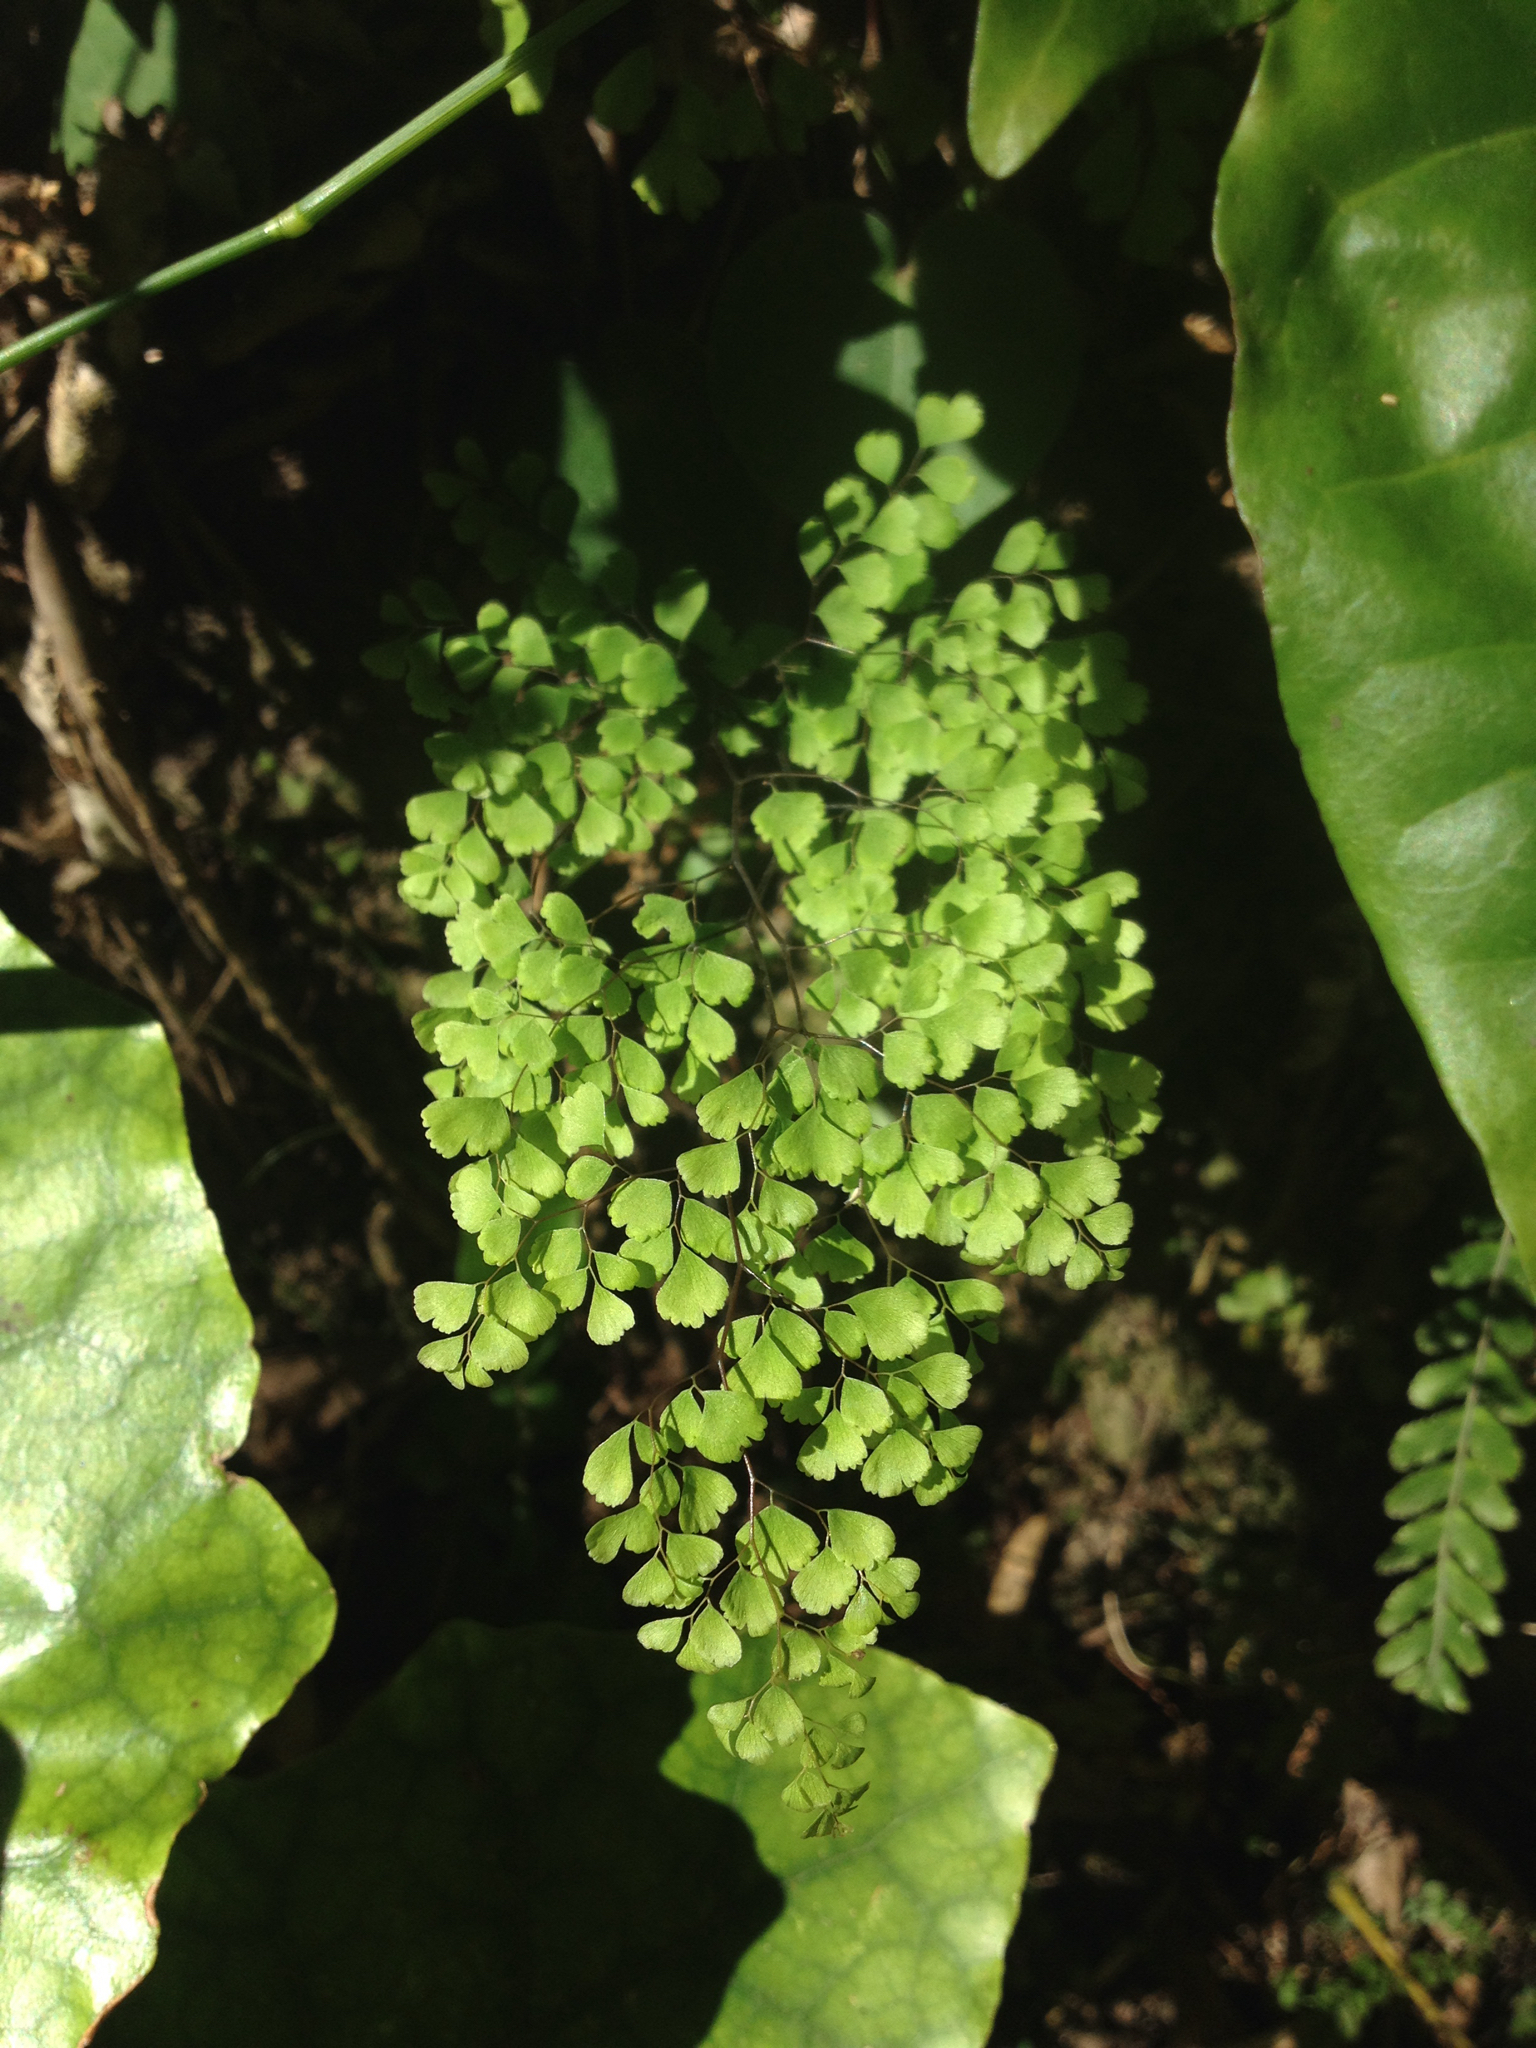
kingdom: Plantae
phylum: Tracheophyta
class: Polypodiopsida
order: Polypodiales
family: Pteridaceae
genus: Adiantum
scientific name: Adiantum raddianum
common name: Delta maidenhair fern
